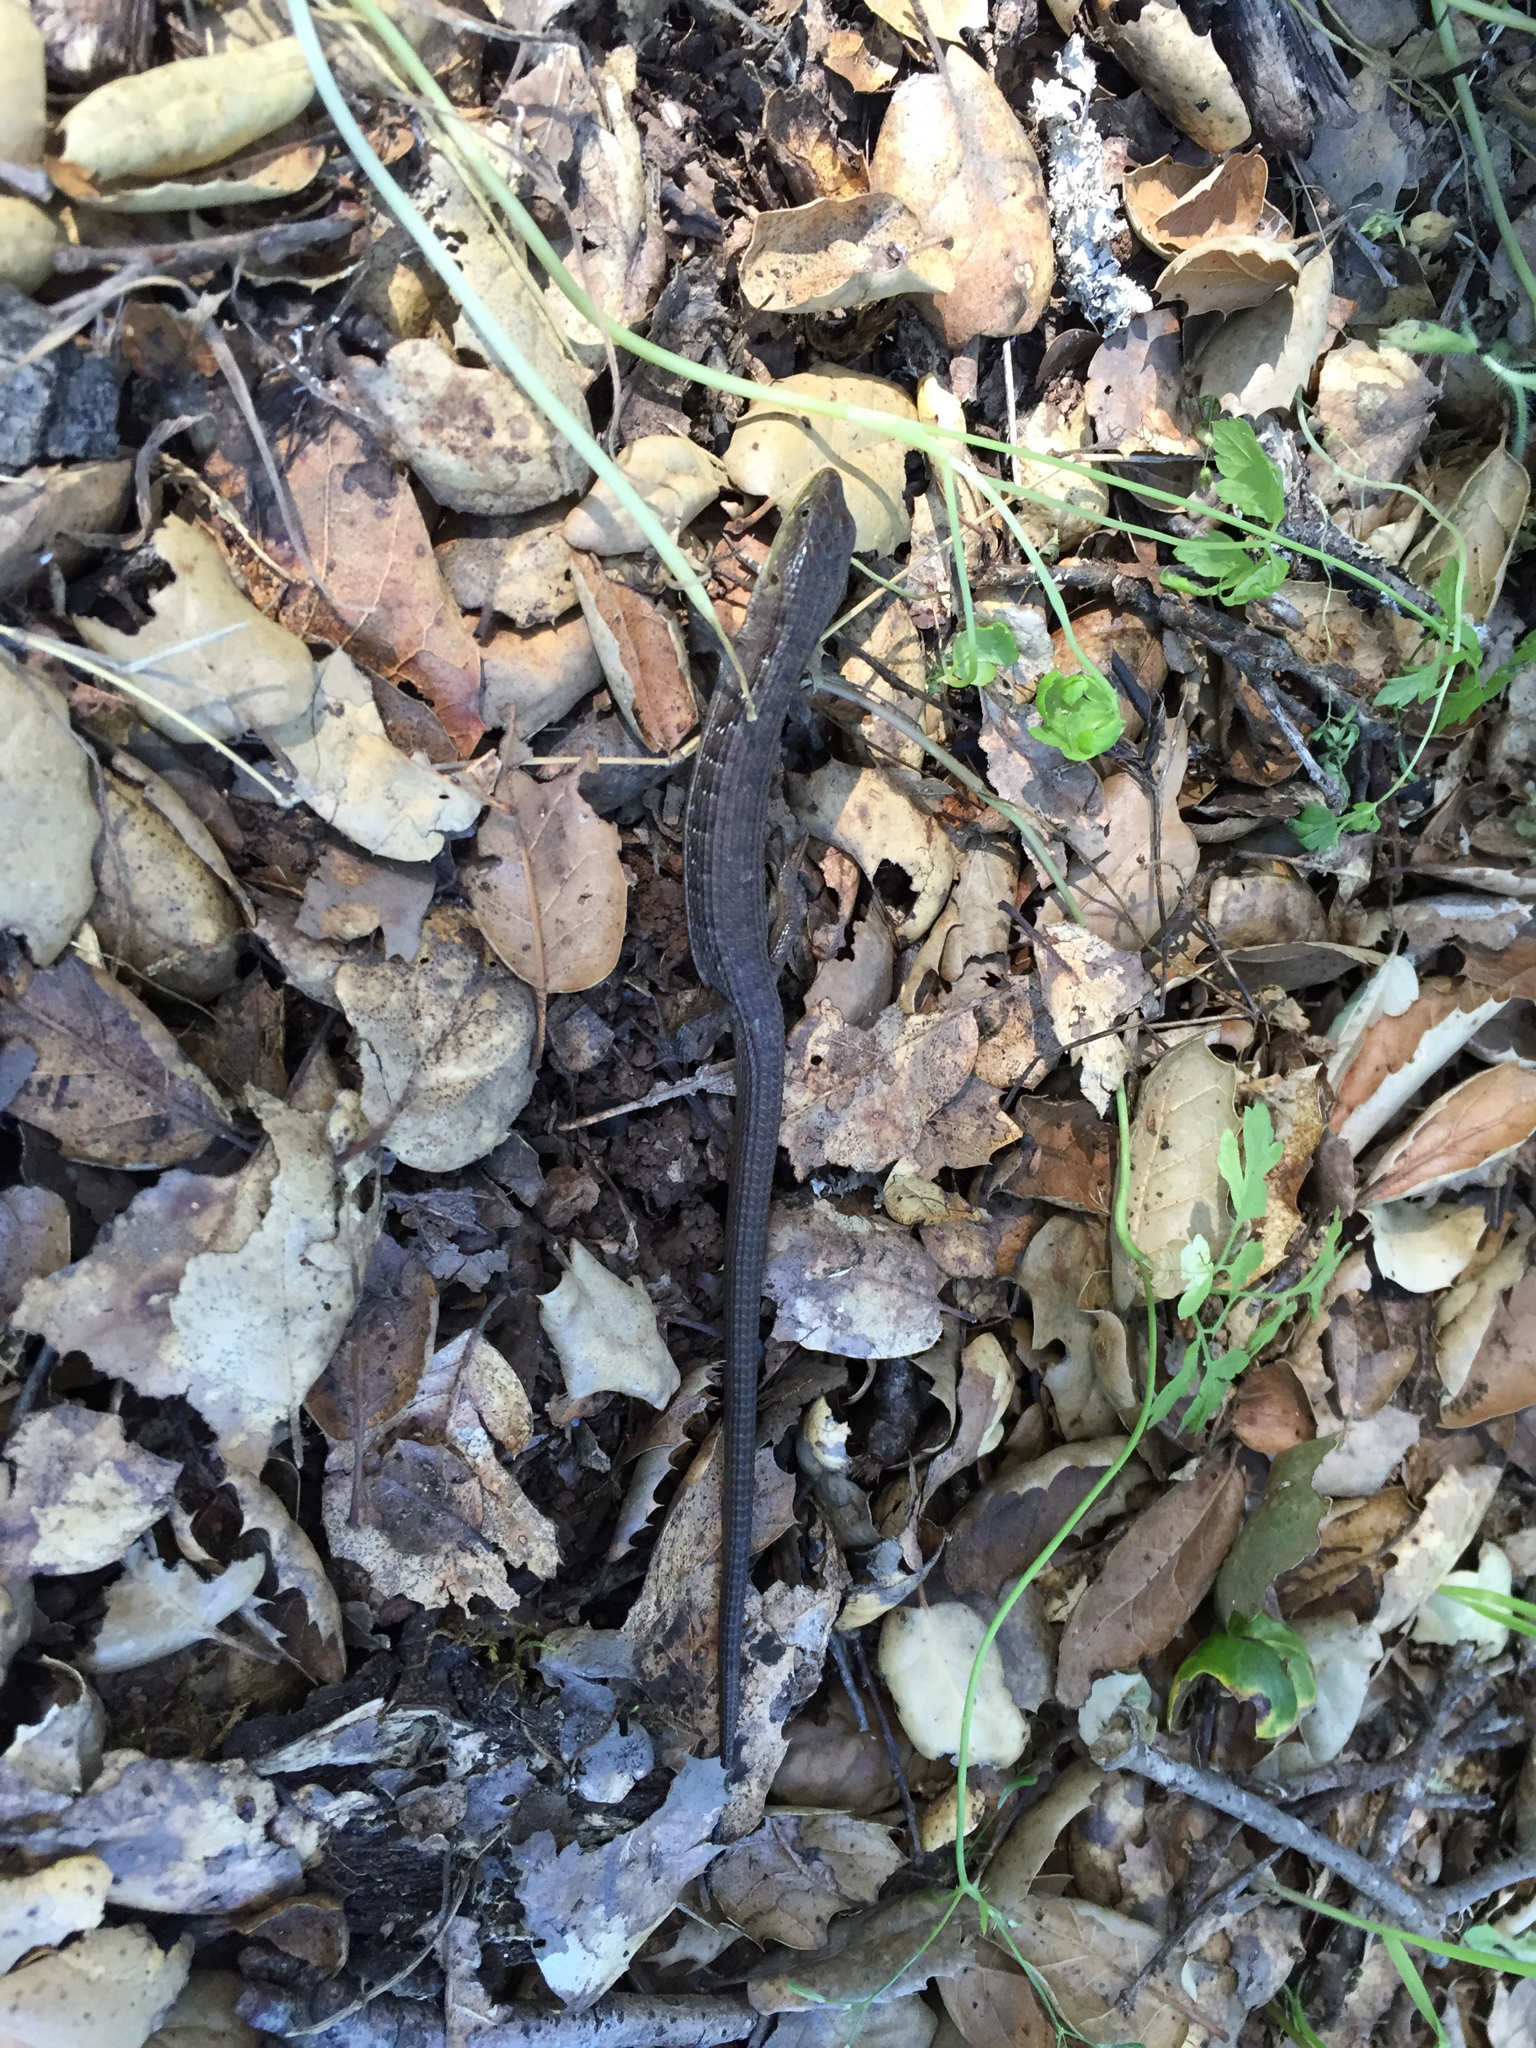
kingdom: Animalia
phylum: Chordata
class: Squamata
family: Anguidae
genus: Elgaria
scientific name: Elgaria multicarinata
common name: Southern alligator lizard
